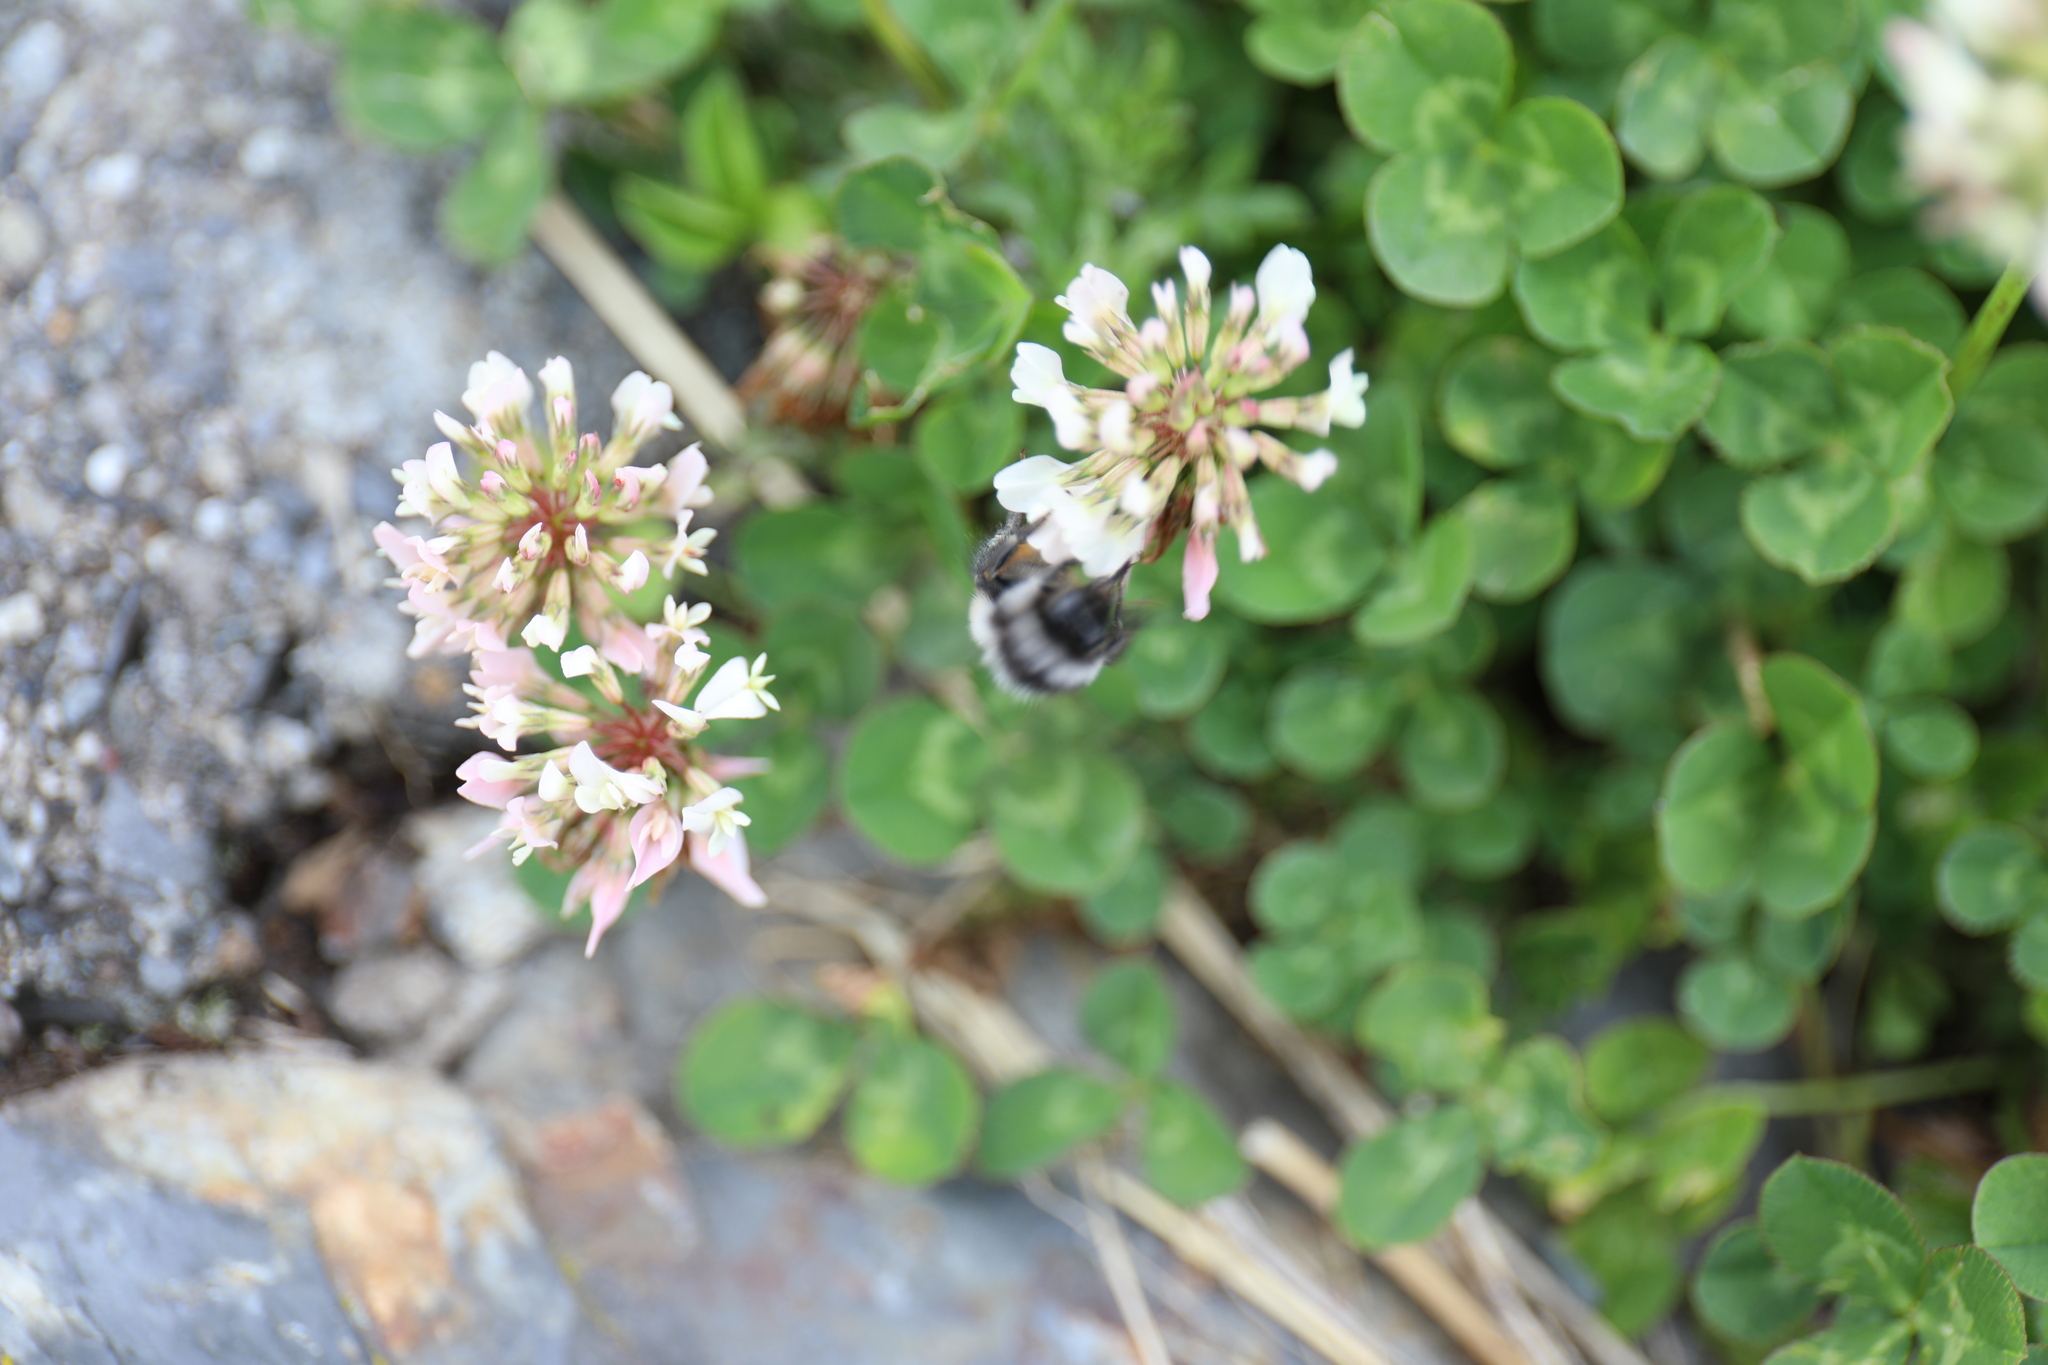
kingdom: Animalia
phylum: Arthropoda
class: Insecta
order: Hymenoptera
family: Apidae
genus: Bombus
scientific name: Bombus formosellus
